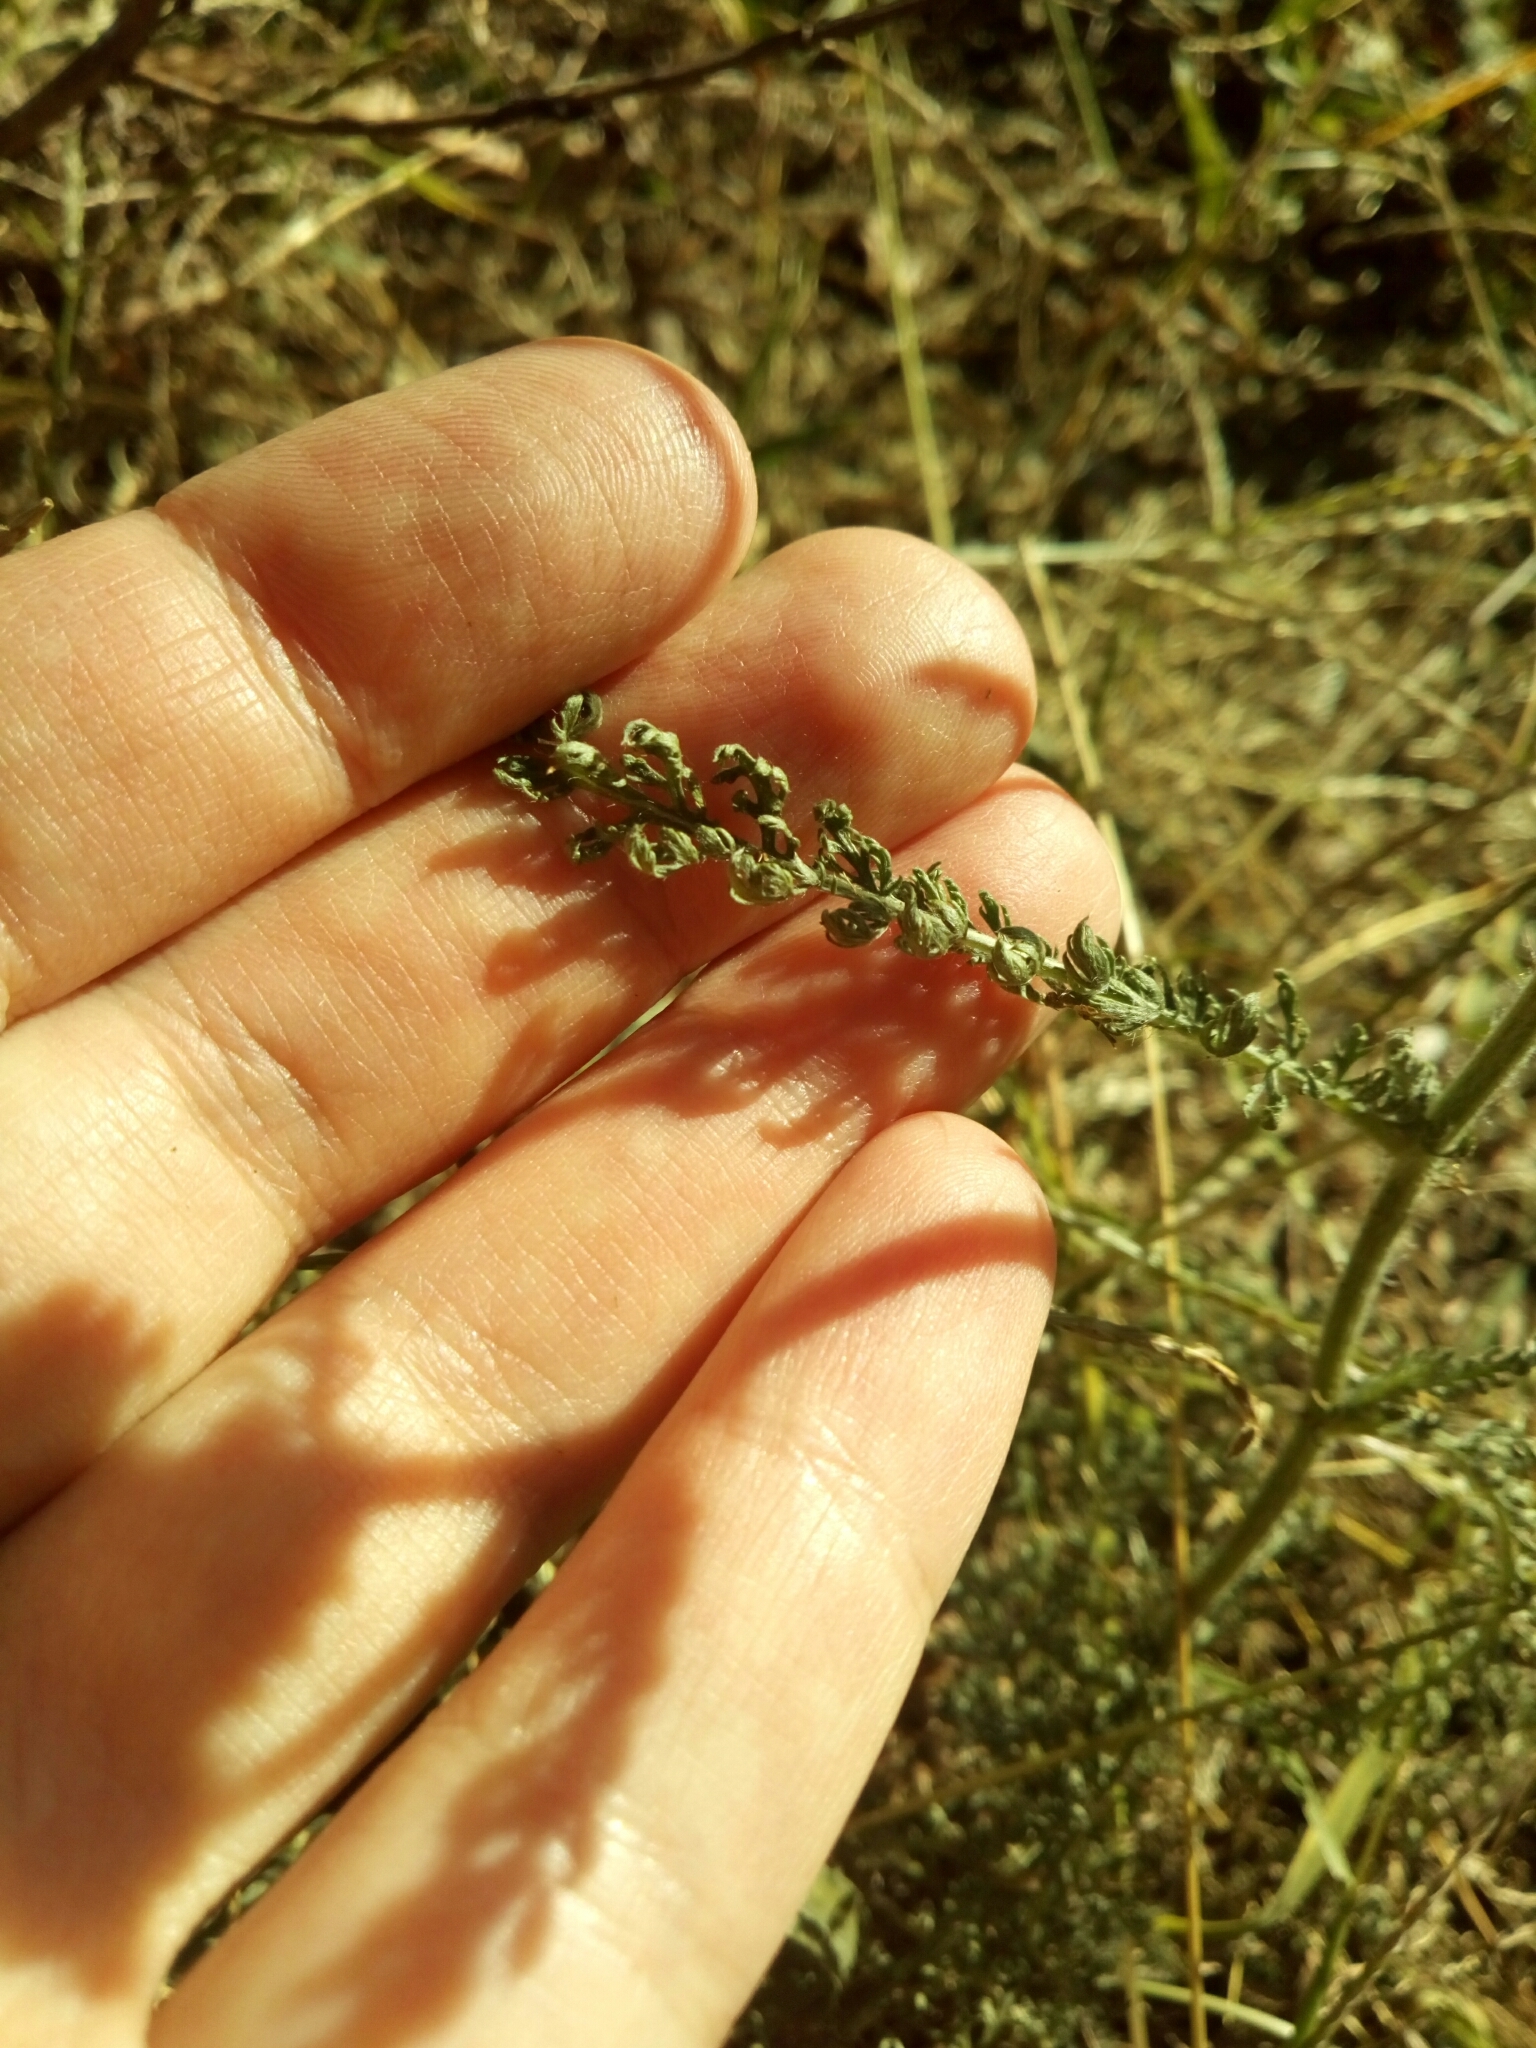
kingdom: Plantae
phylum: Tracheophyta
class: Magnoliopsida
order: Asterales
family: Asteraceae
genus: Achillea
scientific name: Achillea millefolium
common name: Yarrow
